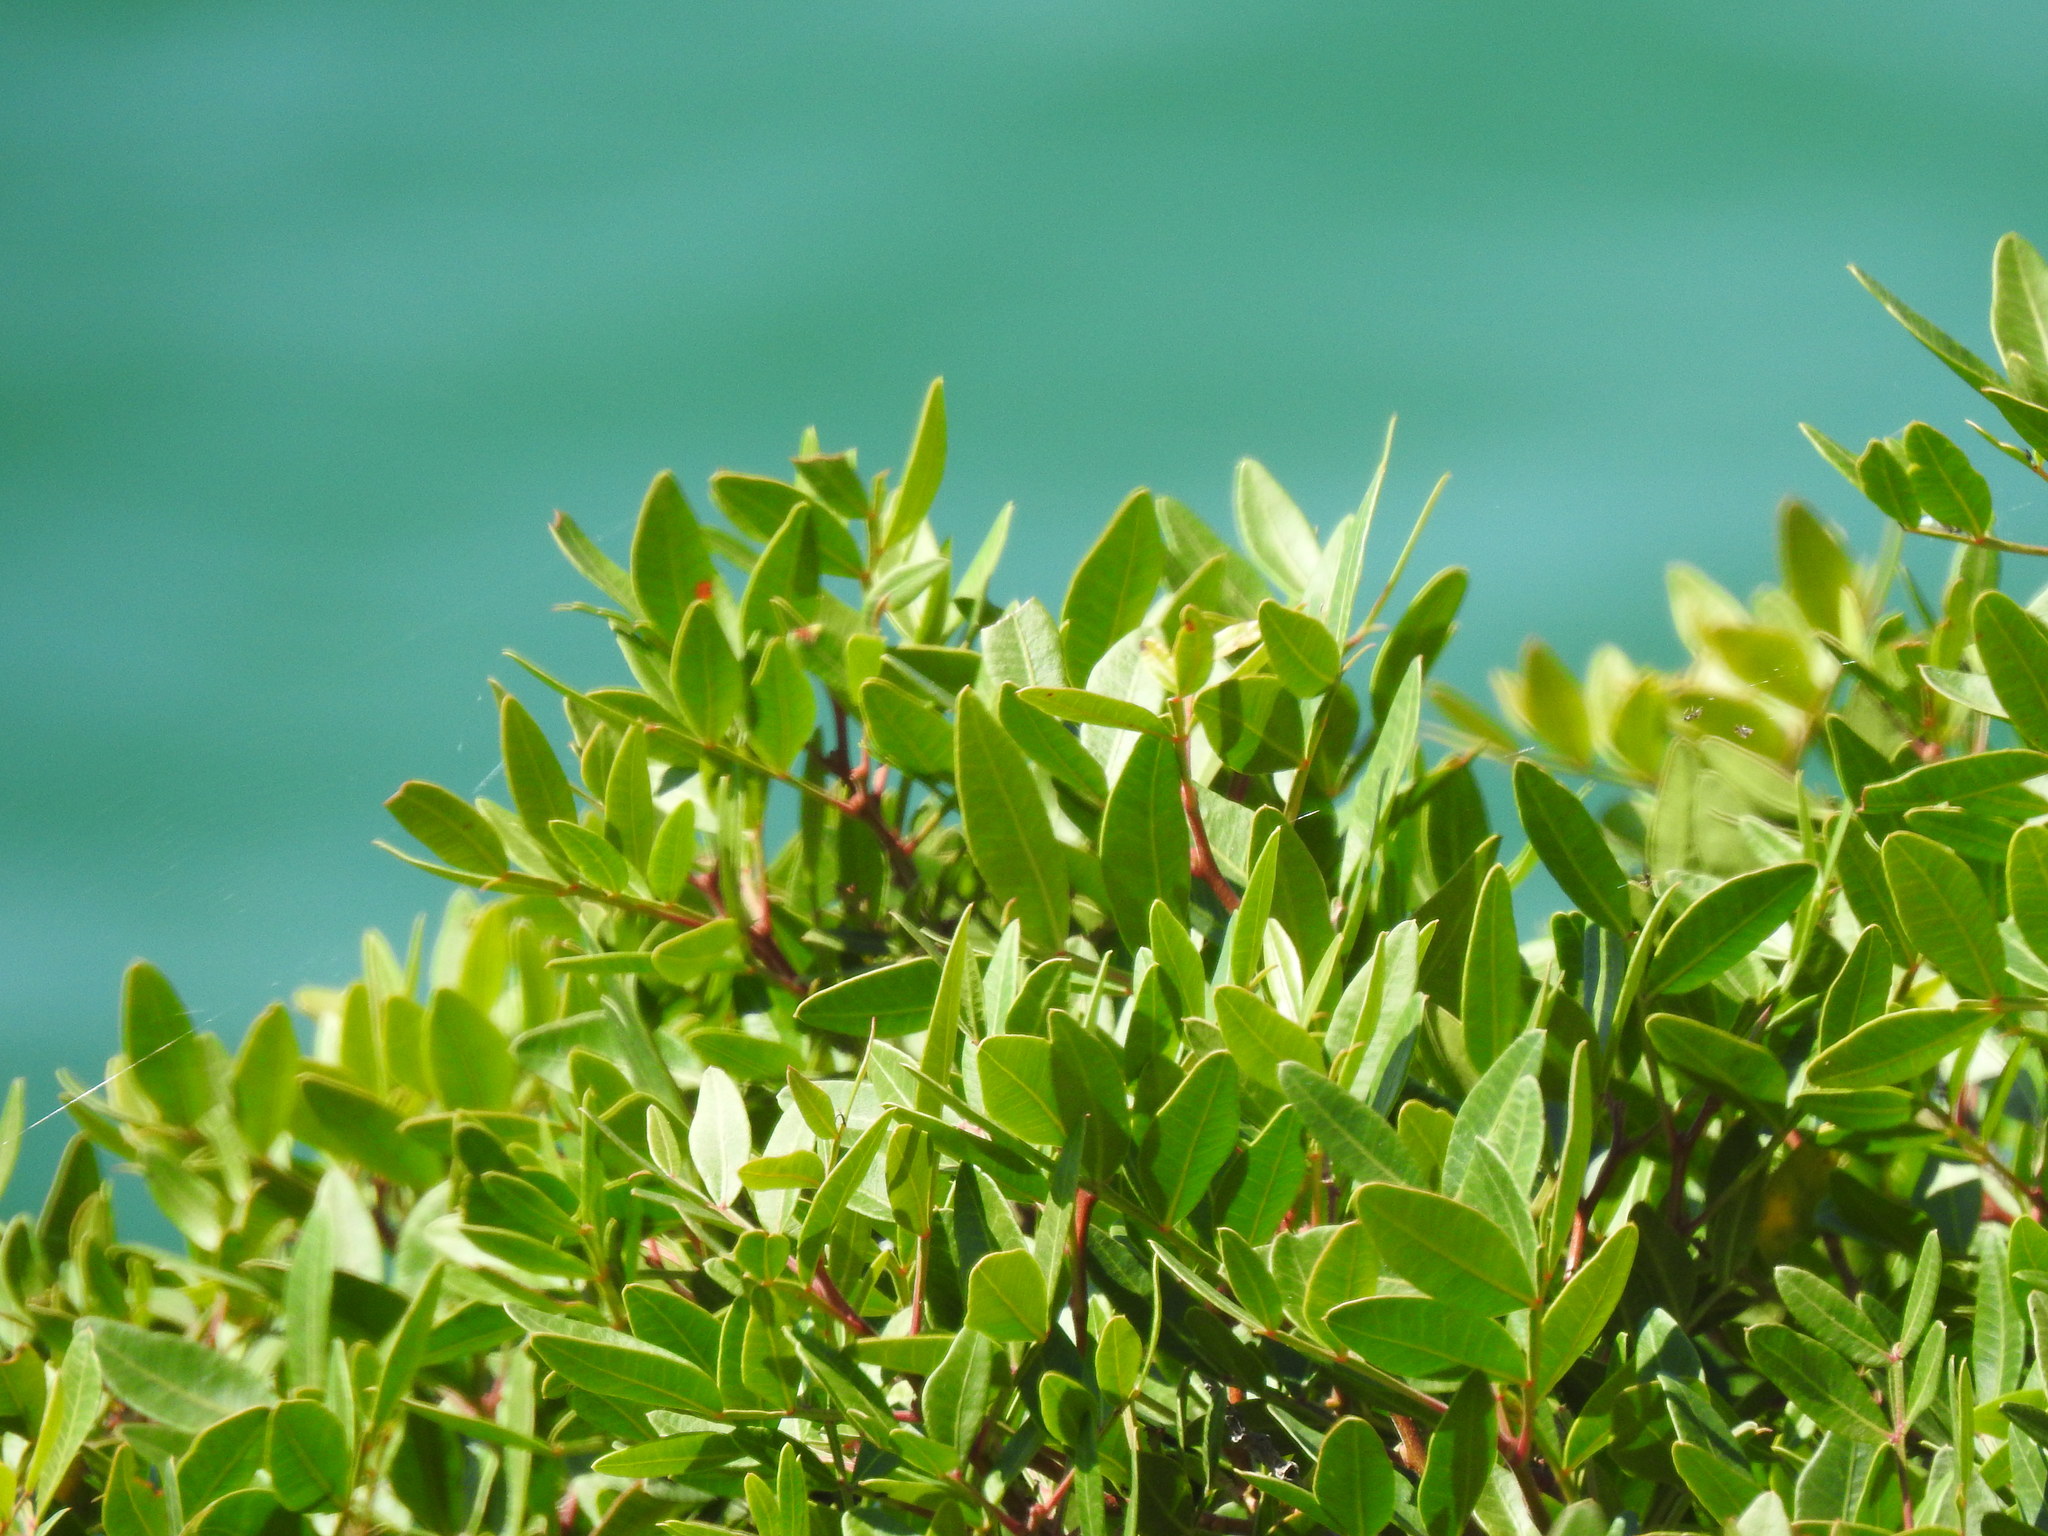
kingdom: Plantae
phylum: Tracheophyta
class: Magnoliopsida
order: Sapindales
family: Anacardiaceae
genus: Pistacia
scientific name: Pistacia lentiscus
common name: Lentisk
